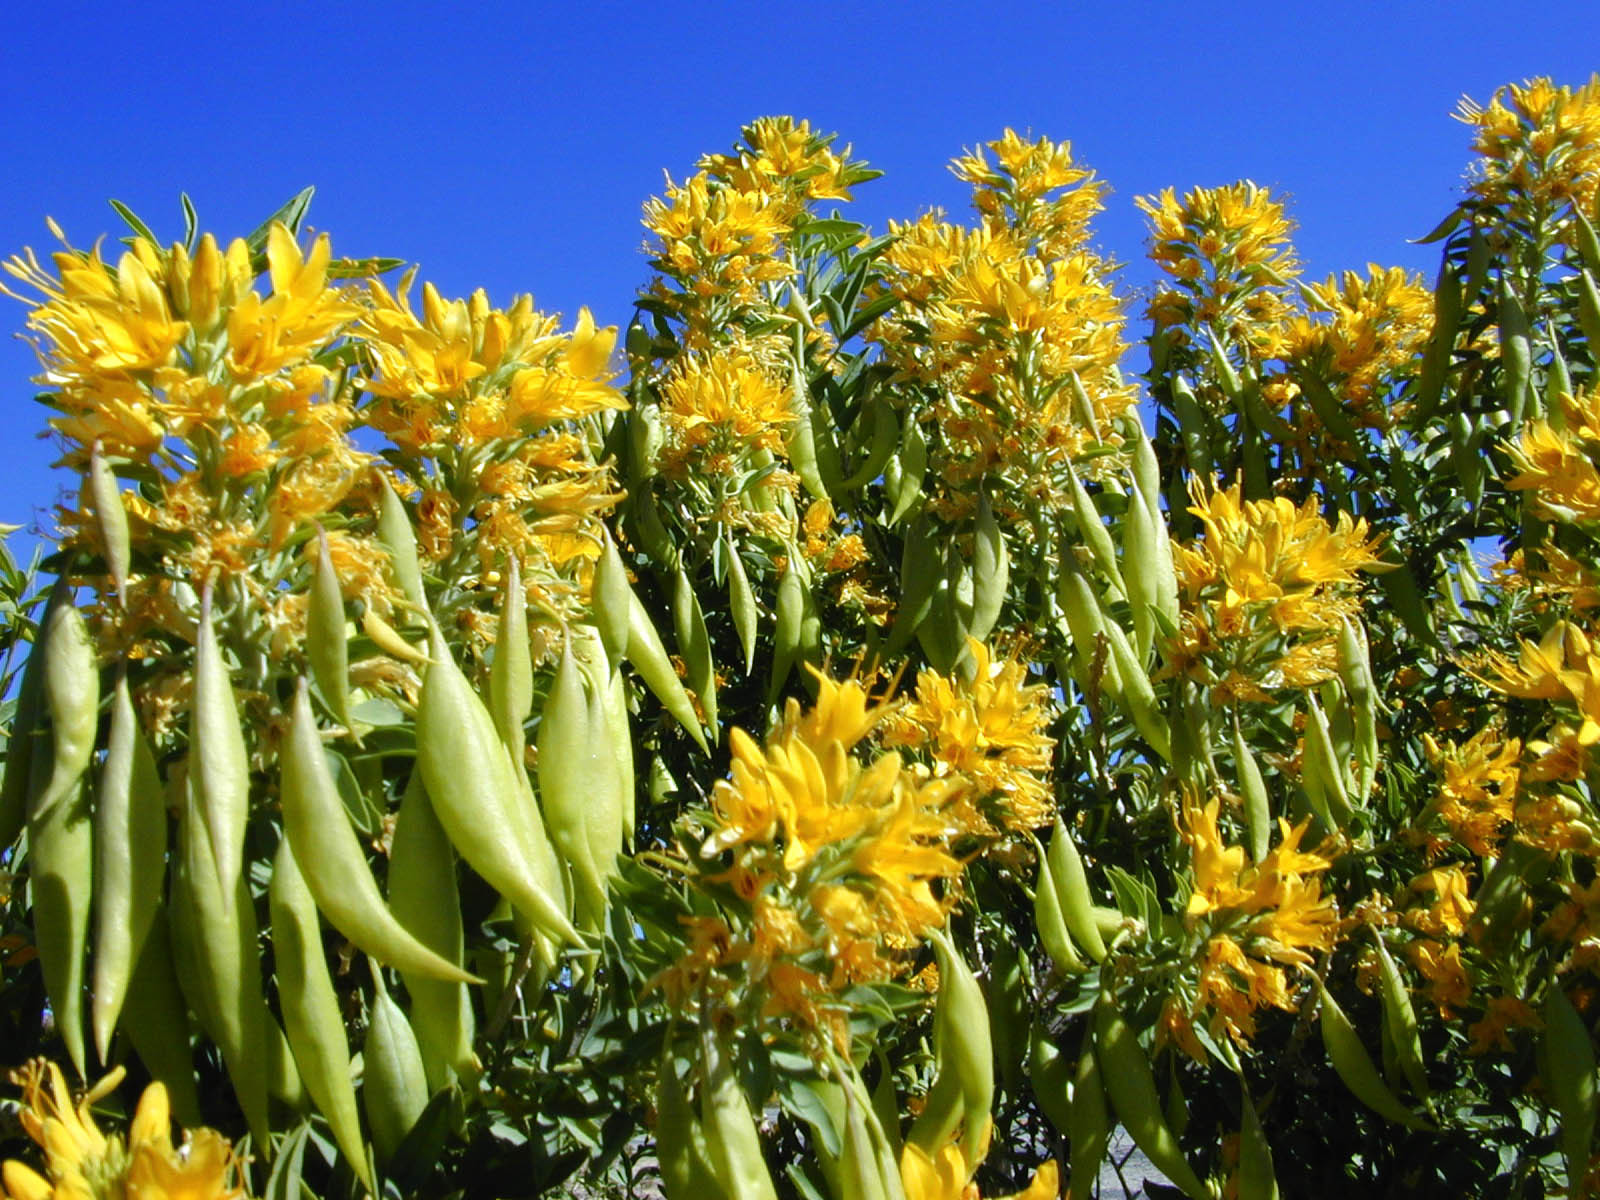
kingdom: Plantae
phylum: Tracheophyta
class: Magnoliopsida
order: Brassicales
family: Cleomaceae
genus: Cleomella
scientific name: Cleomella arborea
